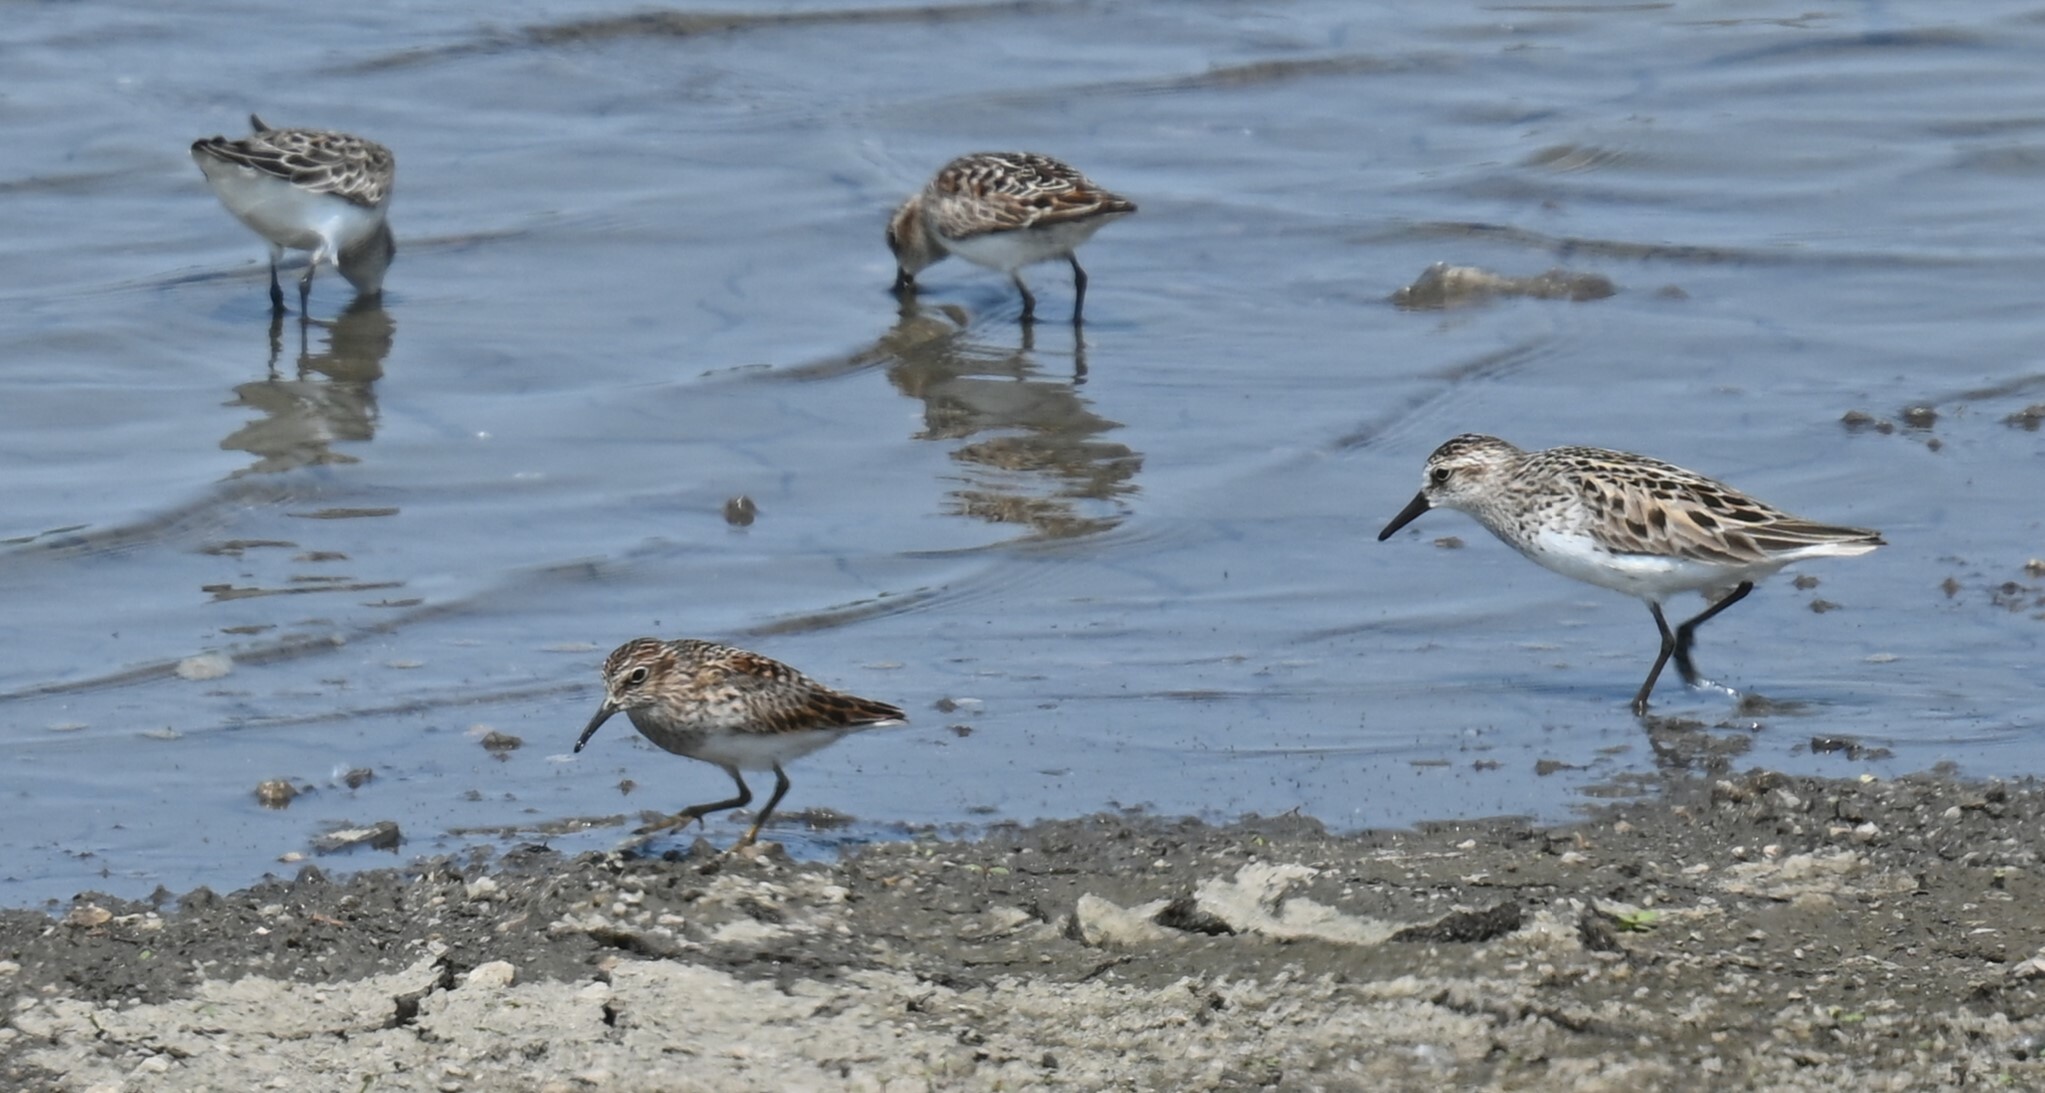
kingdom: Animalia
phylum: Chordata
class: Aves
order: Charadriiformes
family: Scolopacidae
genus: Calidris
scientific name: Calidris minutilla
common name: Least sandpiper
